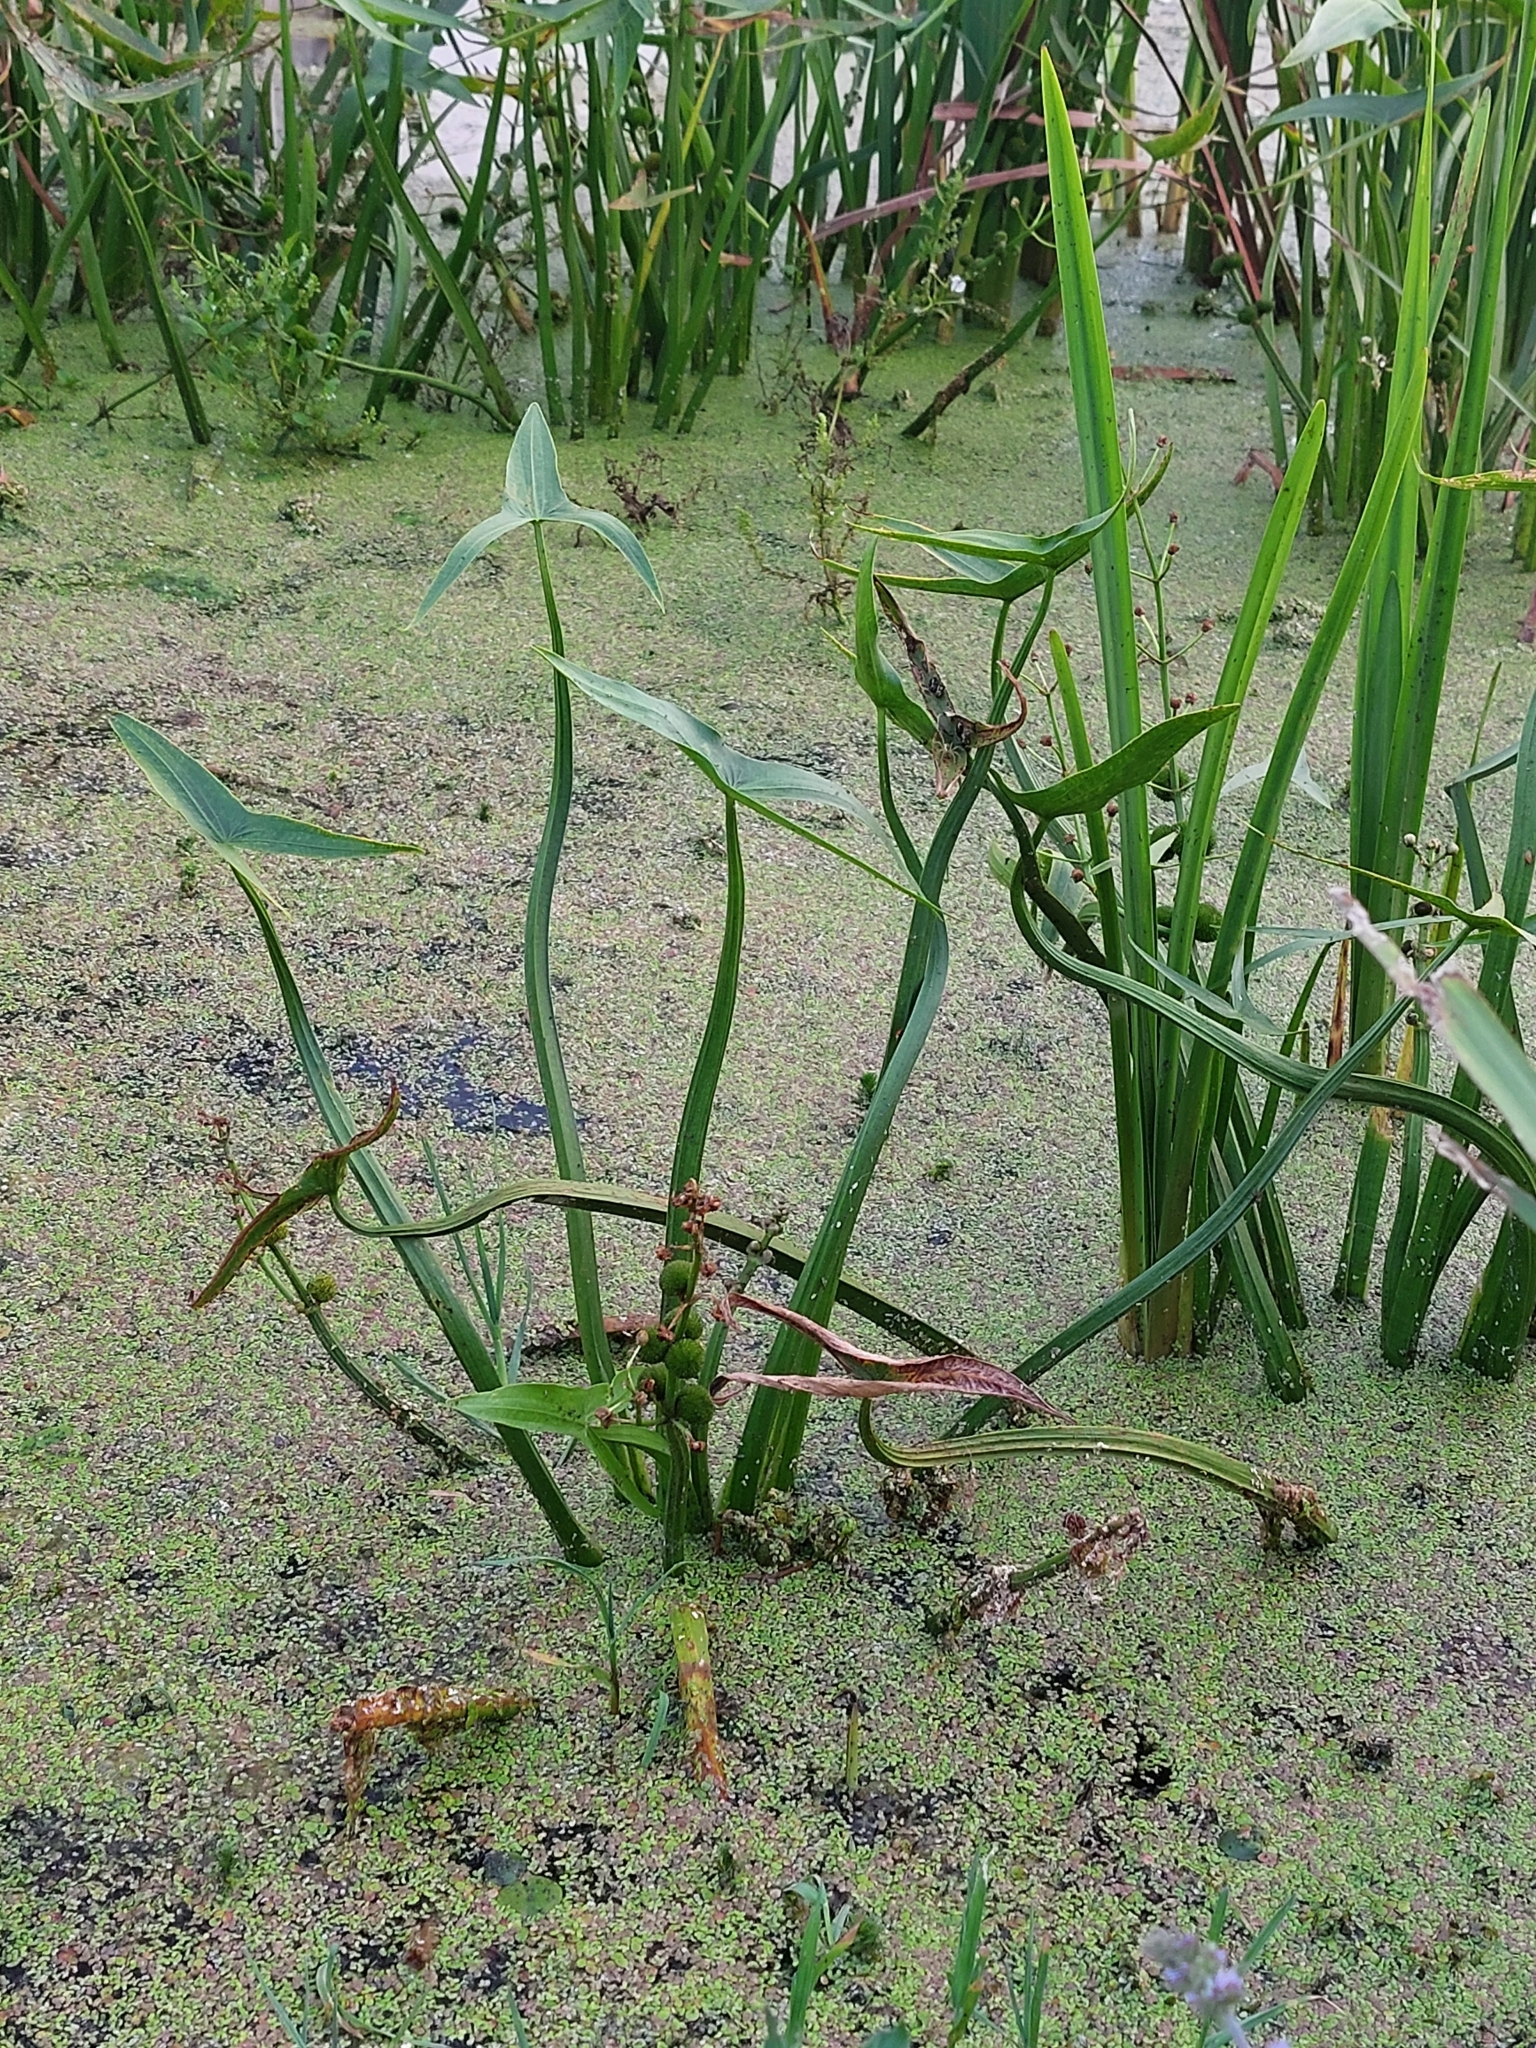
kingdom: Plantae
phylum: Tracheophyta
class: Liliopsida
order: Alismatales
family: Alismataceae
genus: Sagittaria
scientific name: Sagittaria sagittifolia
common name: Arrowhead
